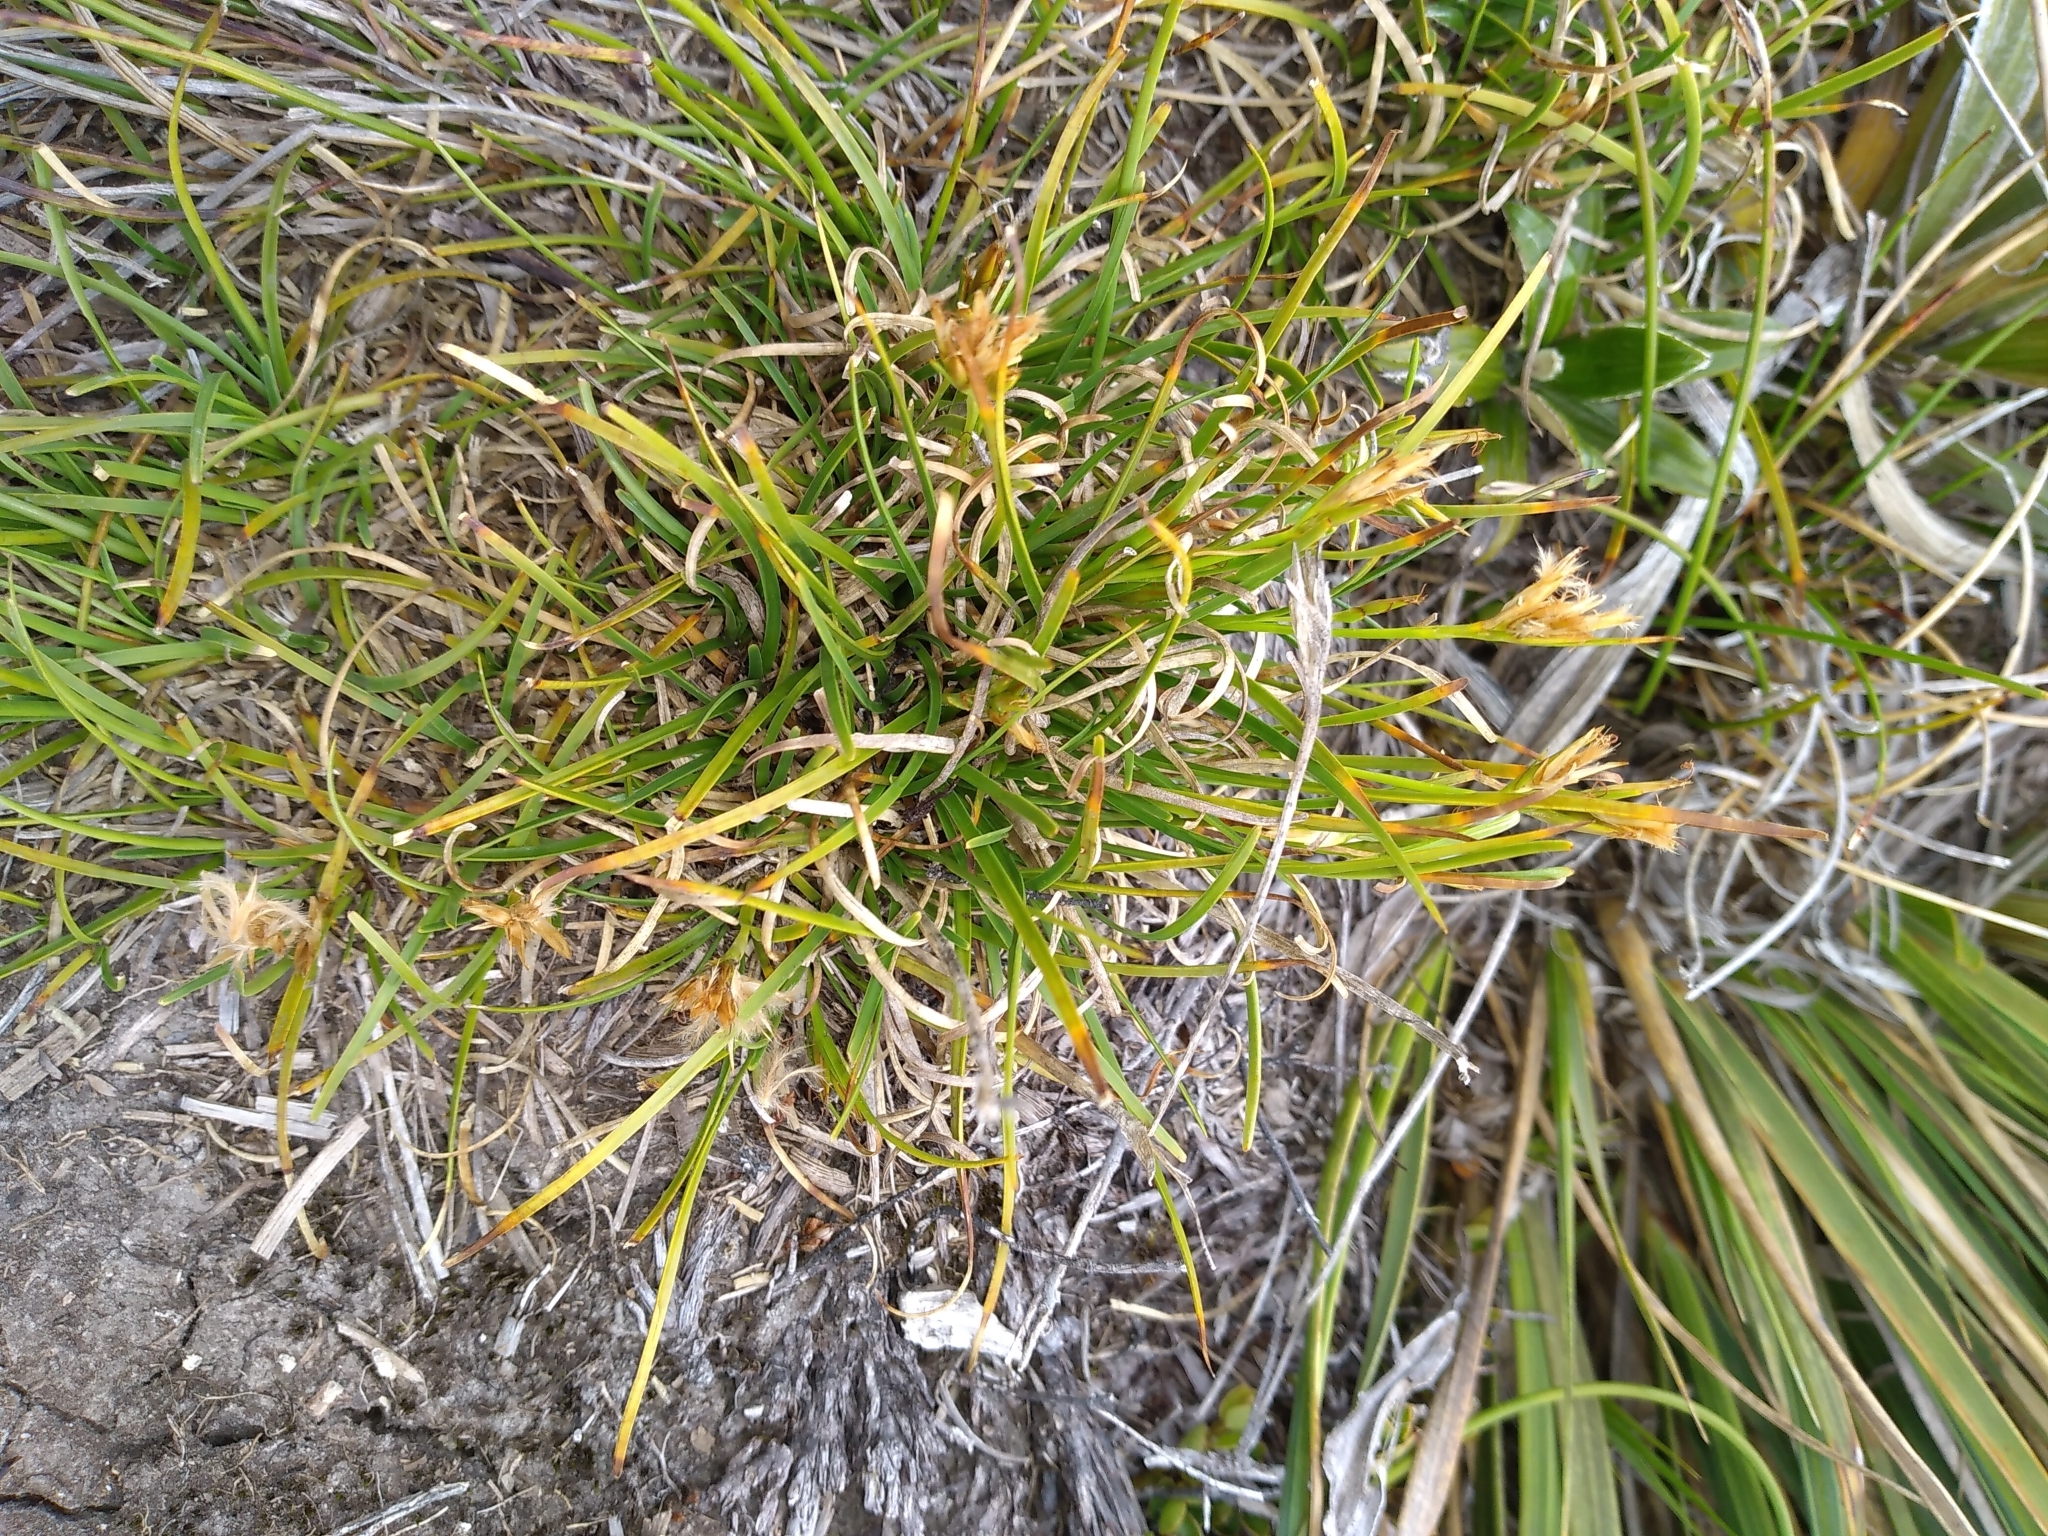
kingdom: Plantae
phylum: Tracheophyta
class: Liliopsida
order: Poales
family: Cyperaceae
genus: Carpha
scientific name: Carpha alpina
